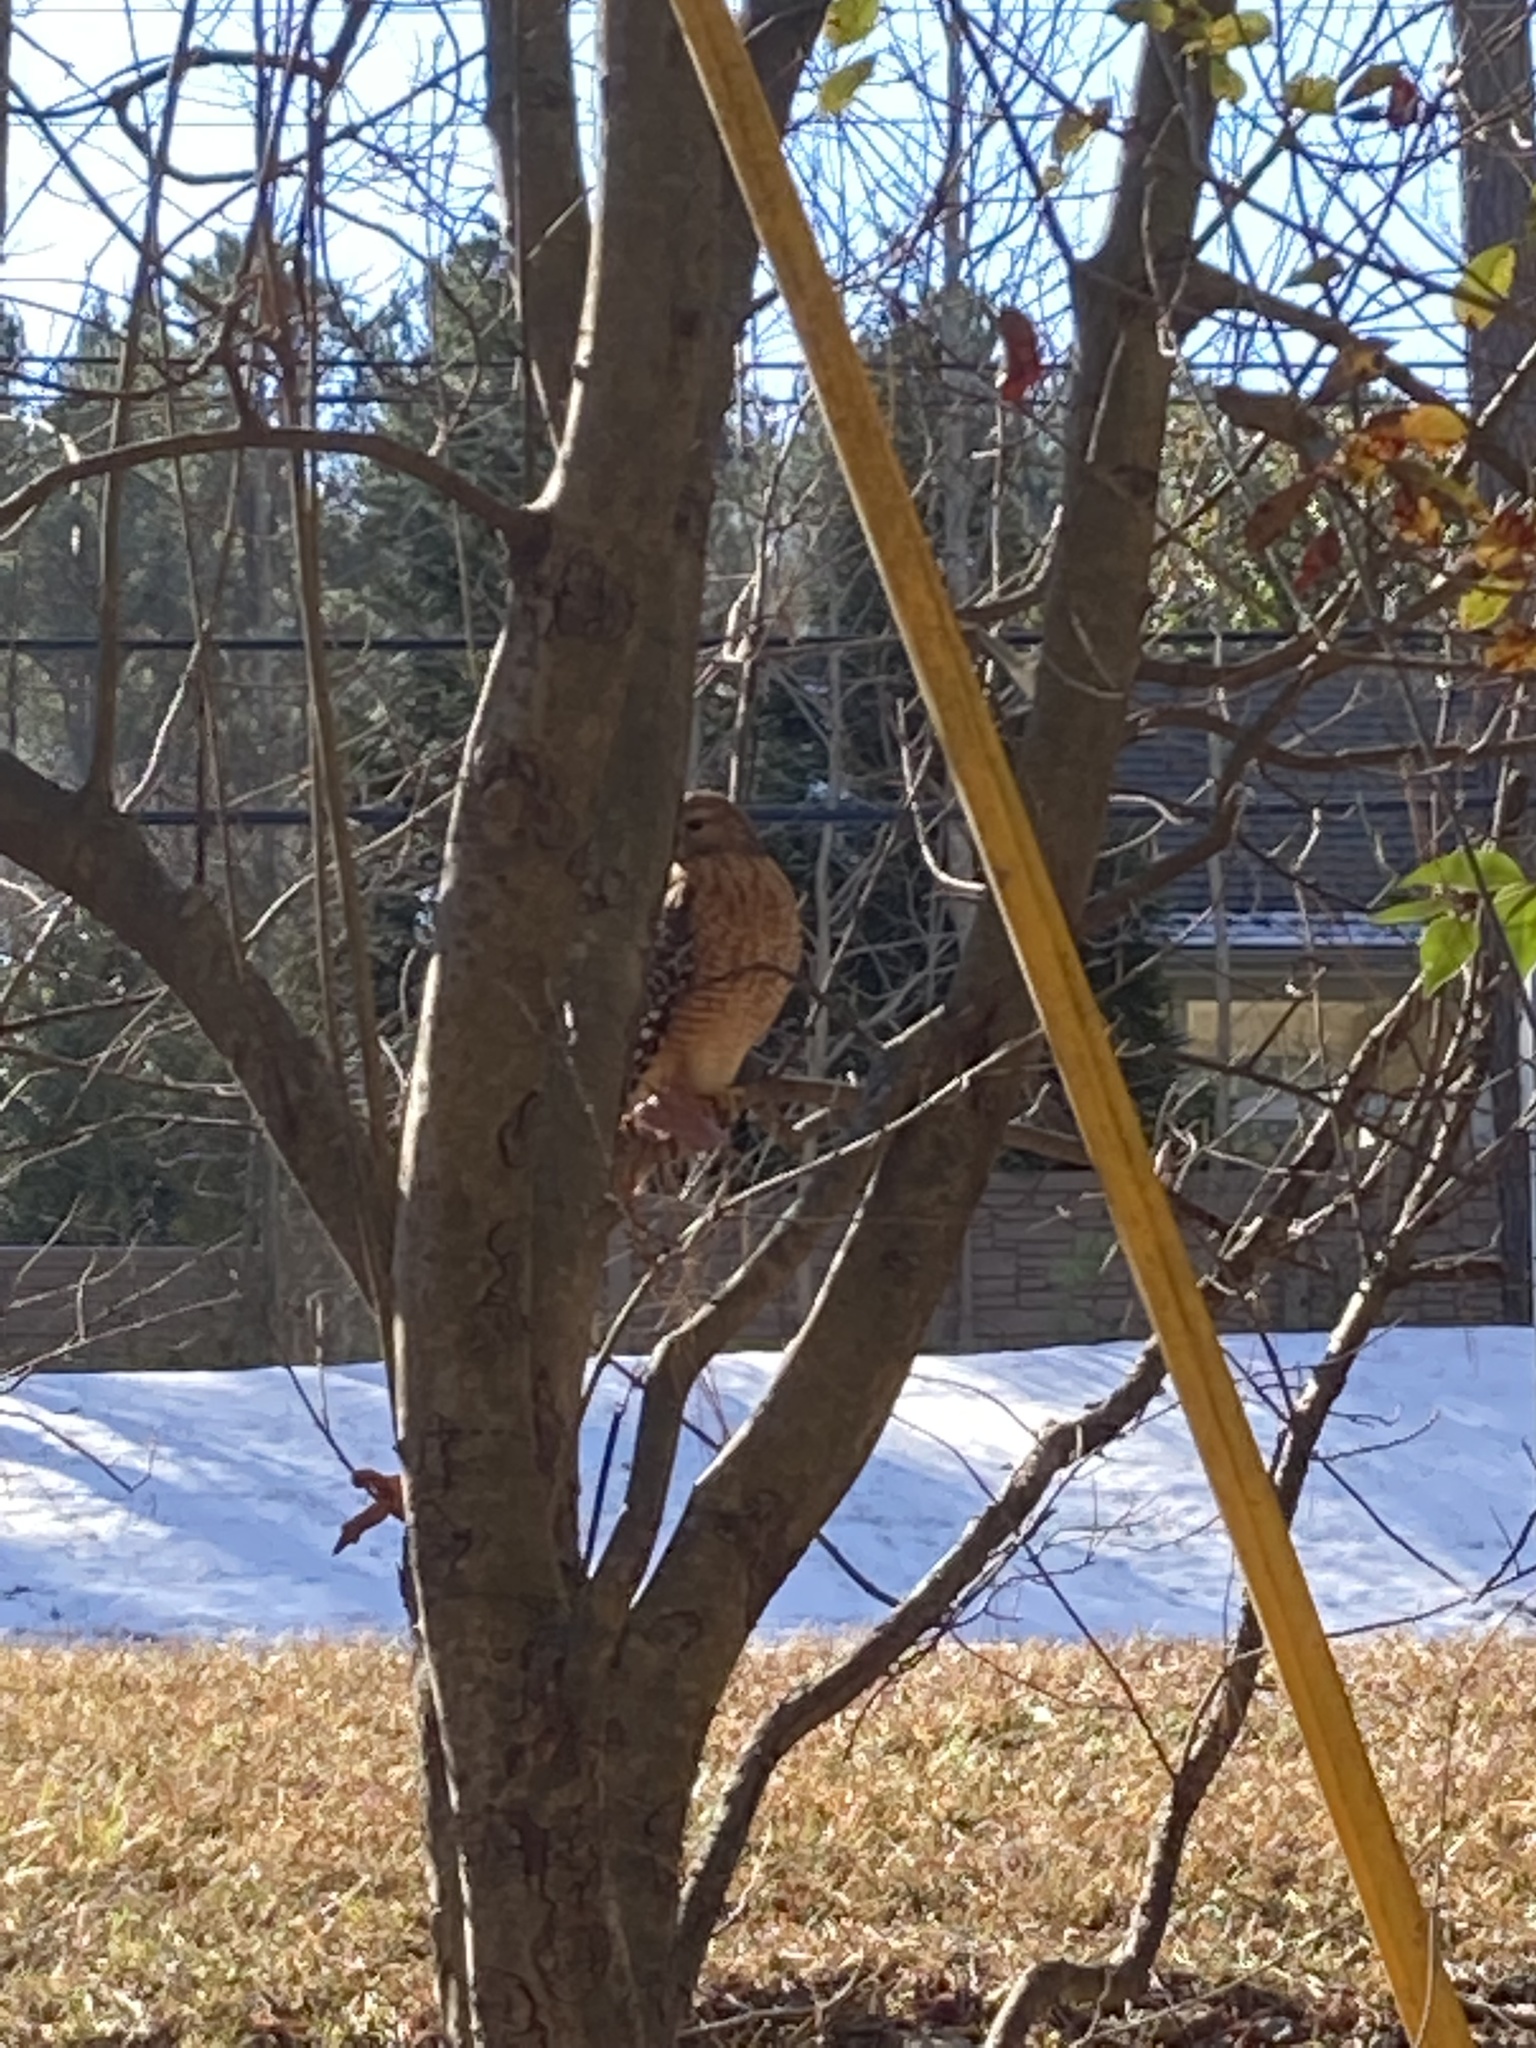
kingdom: Animalia
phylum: Chordata
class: Aves
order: Accipitriformes
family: Accipitridae
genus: Buteo
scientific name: Buteo lineatus
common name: Red-shouldered hawk
